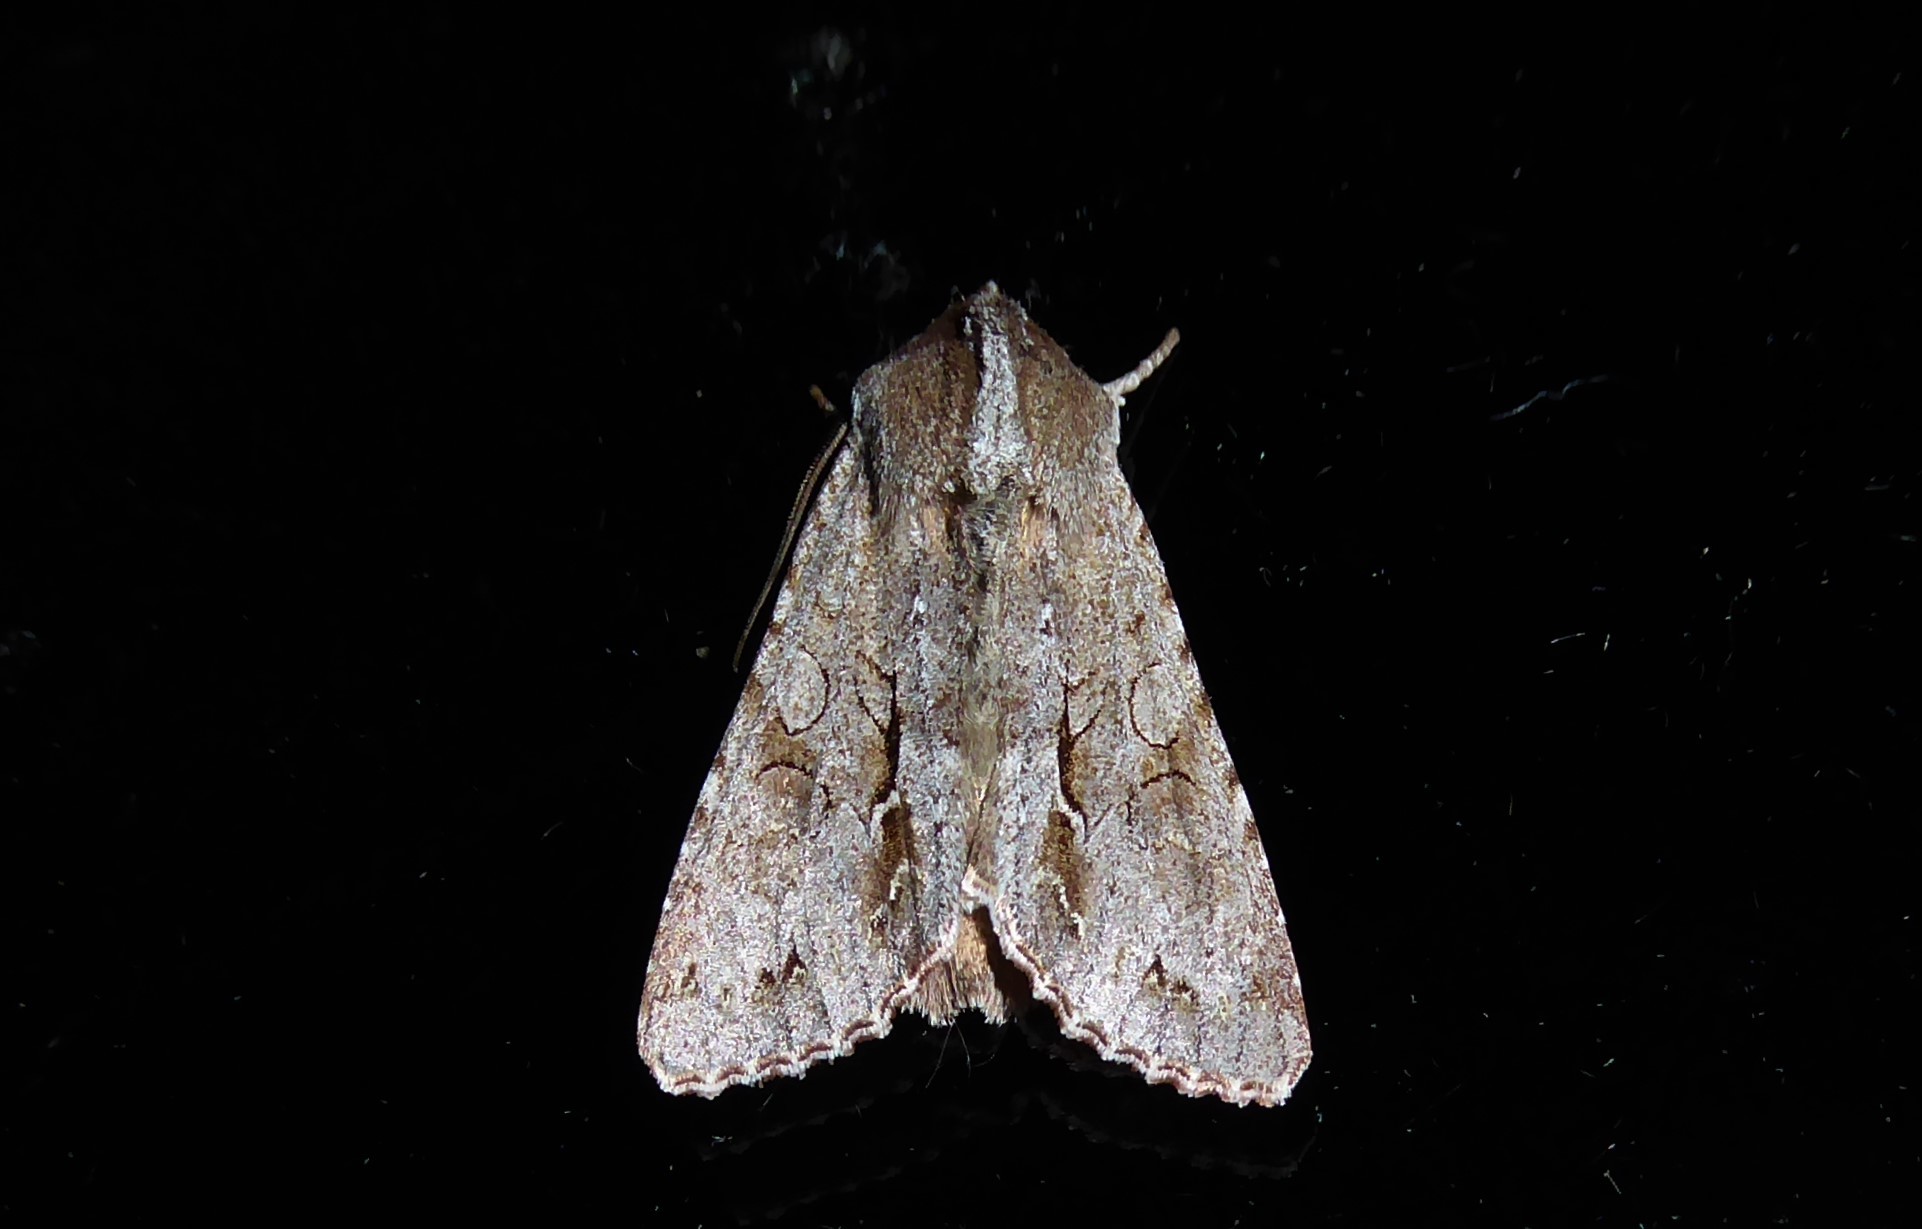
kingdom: Animalia
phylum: Arthropoda
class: Insecta
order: Lepidoptera
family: Noctuidae
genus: Ichneutica
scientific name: Ichneutica
